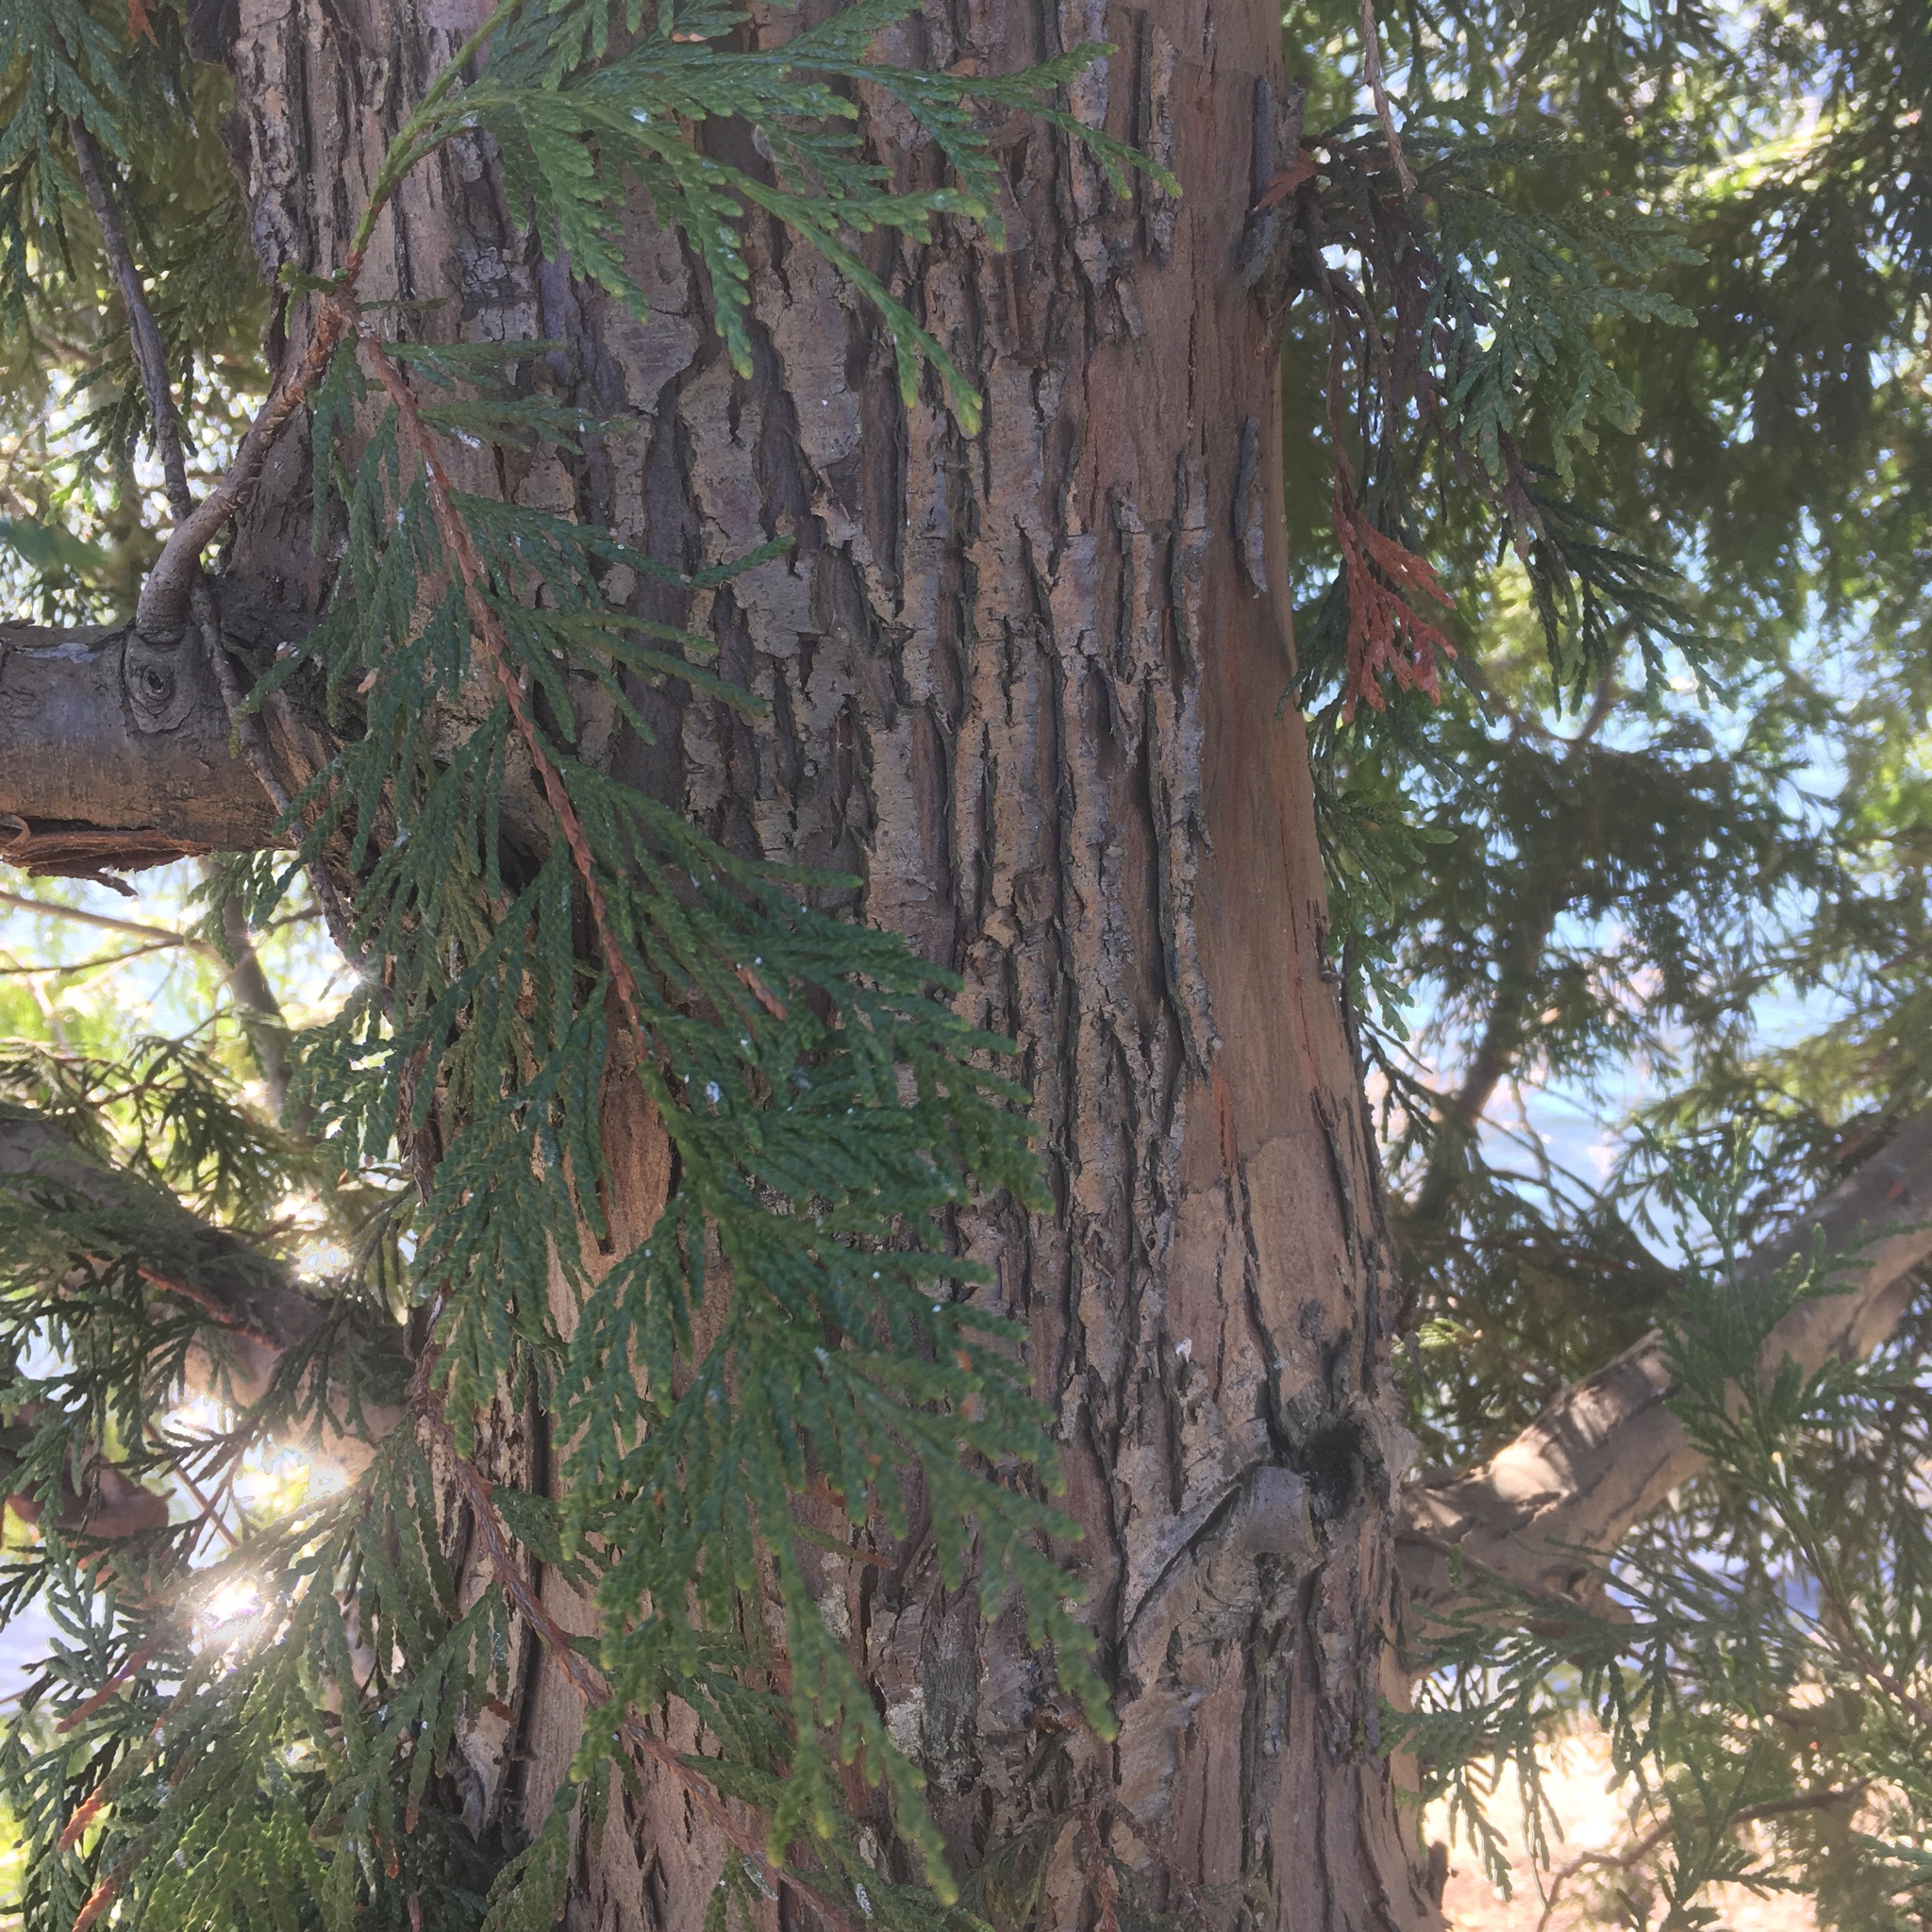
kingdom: Plantae
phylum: Tracheophyta
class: Pinopsida
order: Pinales
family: Cupressaceae
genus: Thuja
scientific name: Thuja plicata
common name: Western red-cedar
